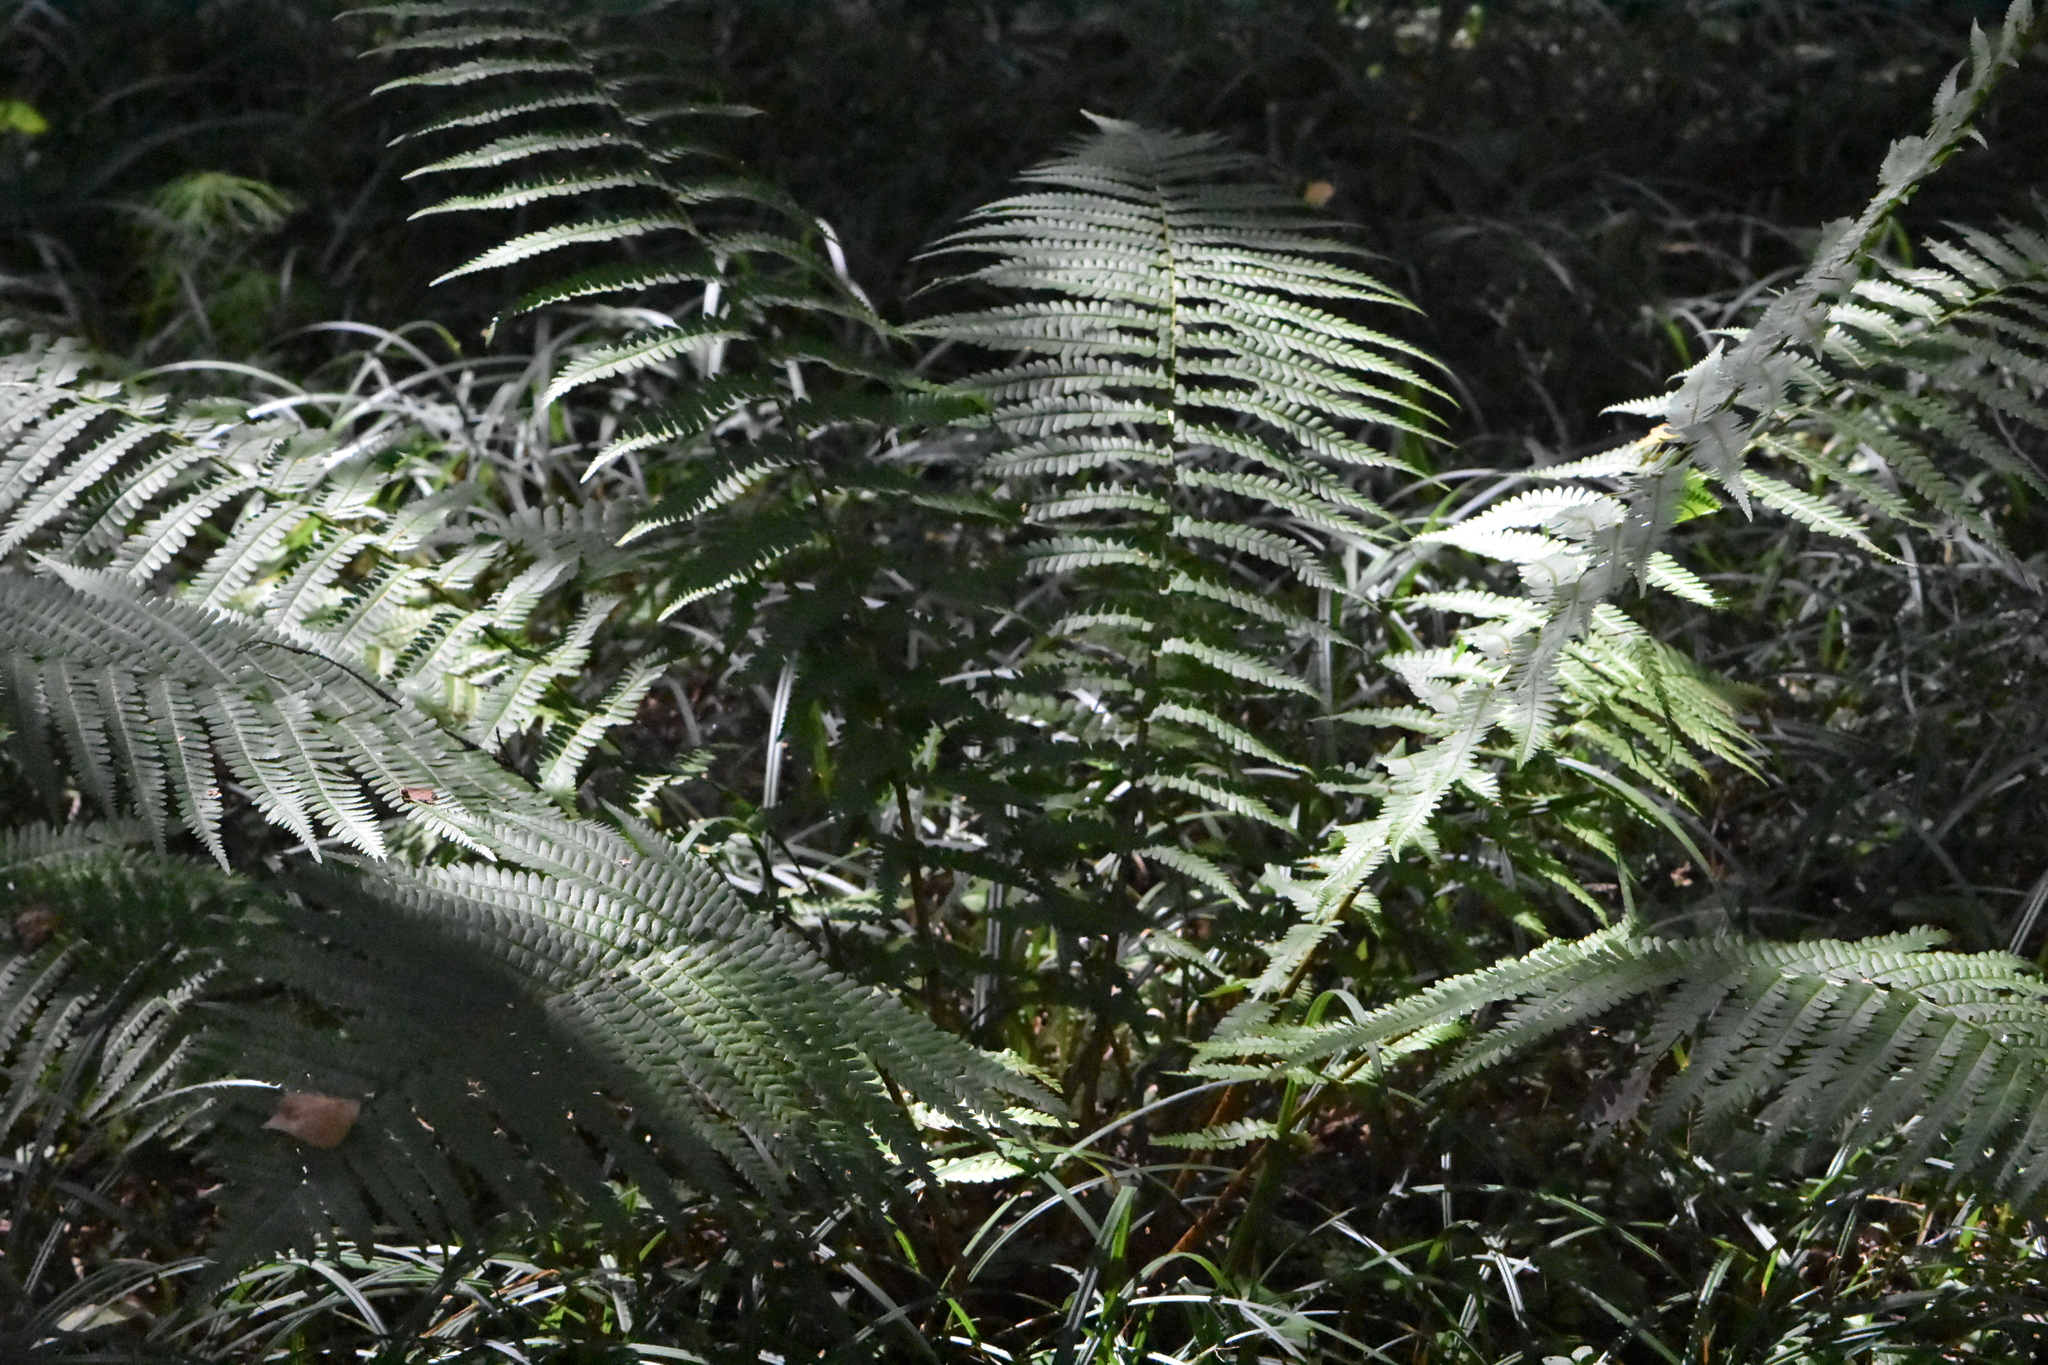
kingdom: Plantae
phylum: Tracheophyta
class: Polypodiopsida
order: Polypodiales
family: Dryopteridaceae
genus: Dryopteris
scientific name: Dryopteris filix-mas
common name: Male fern
